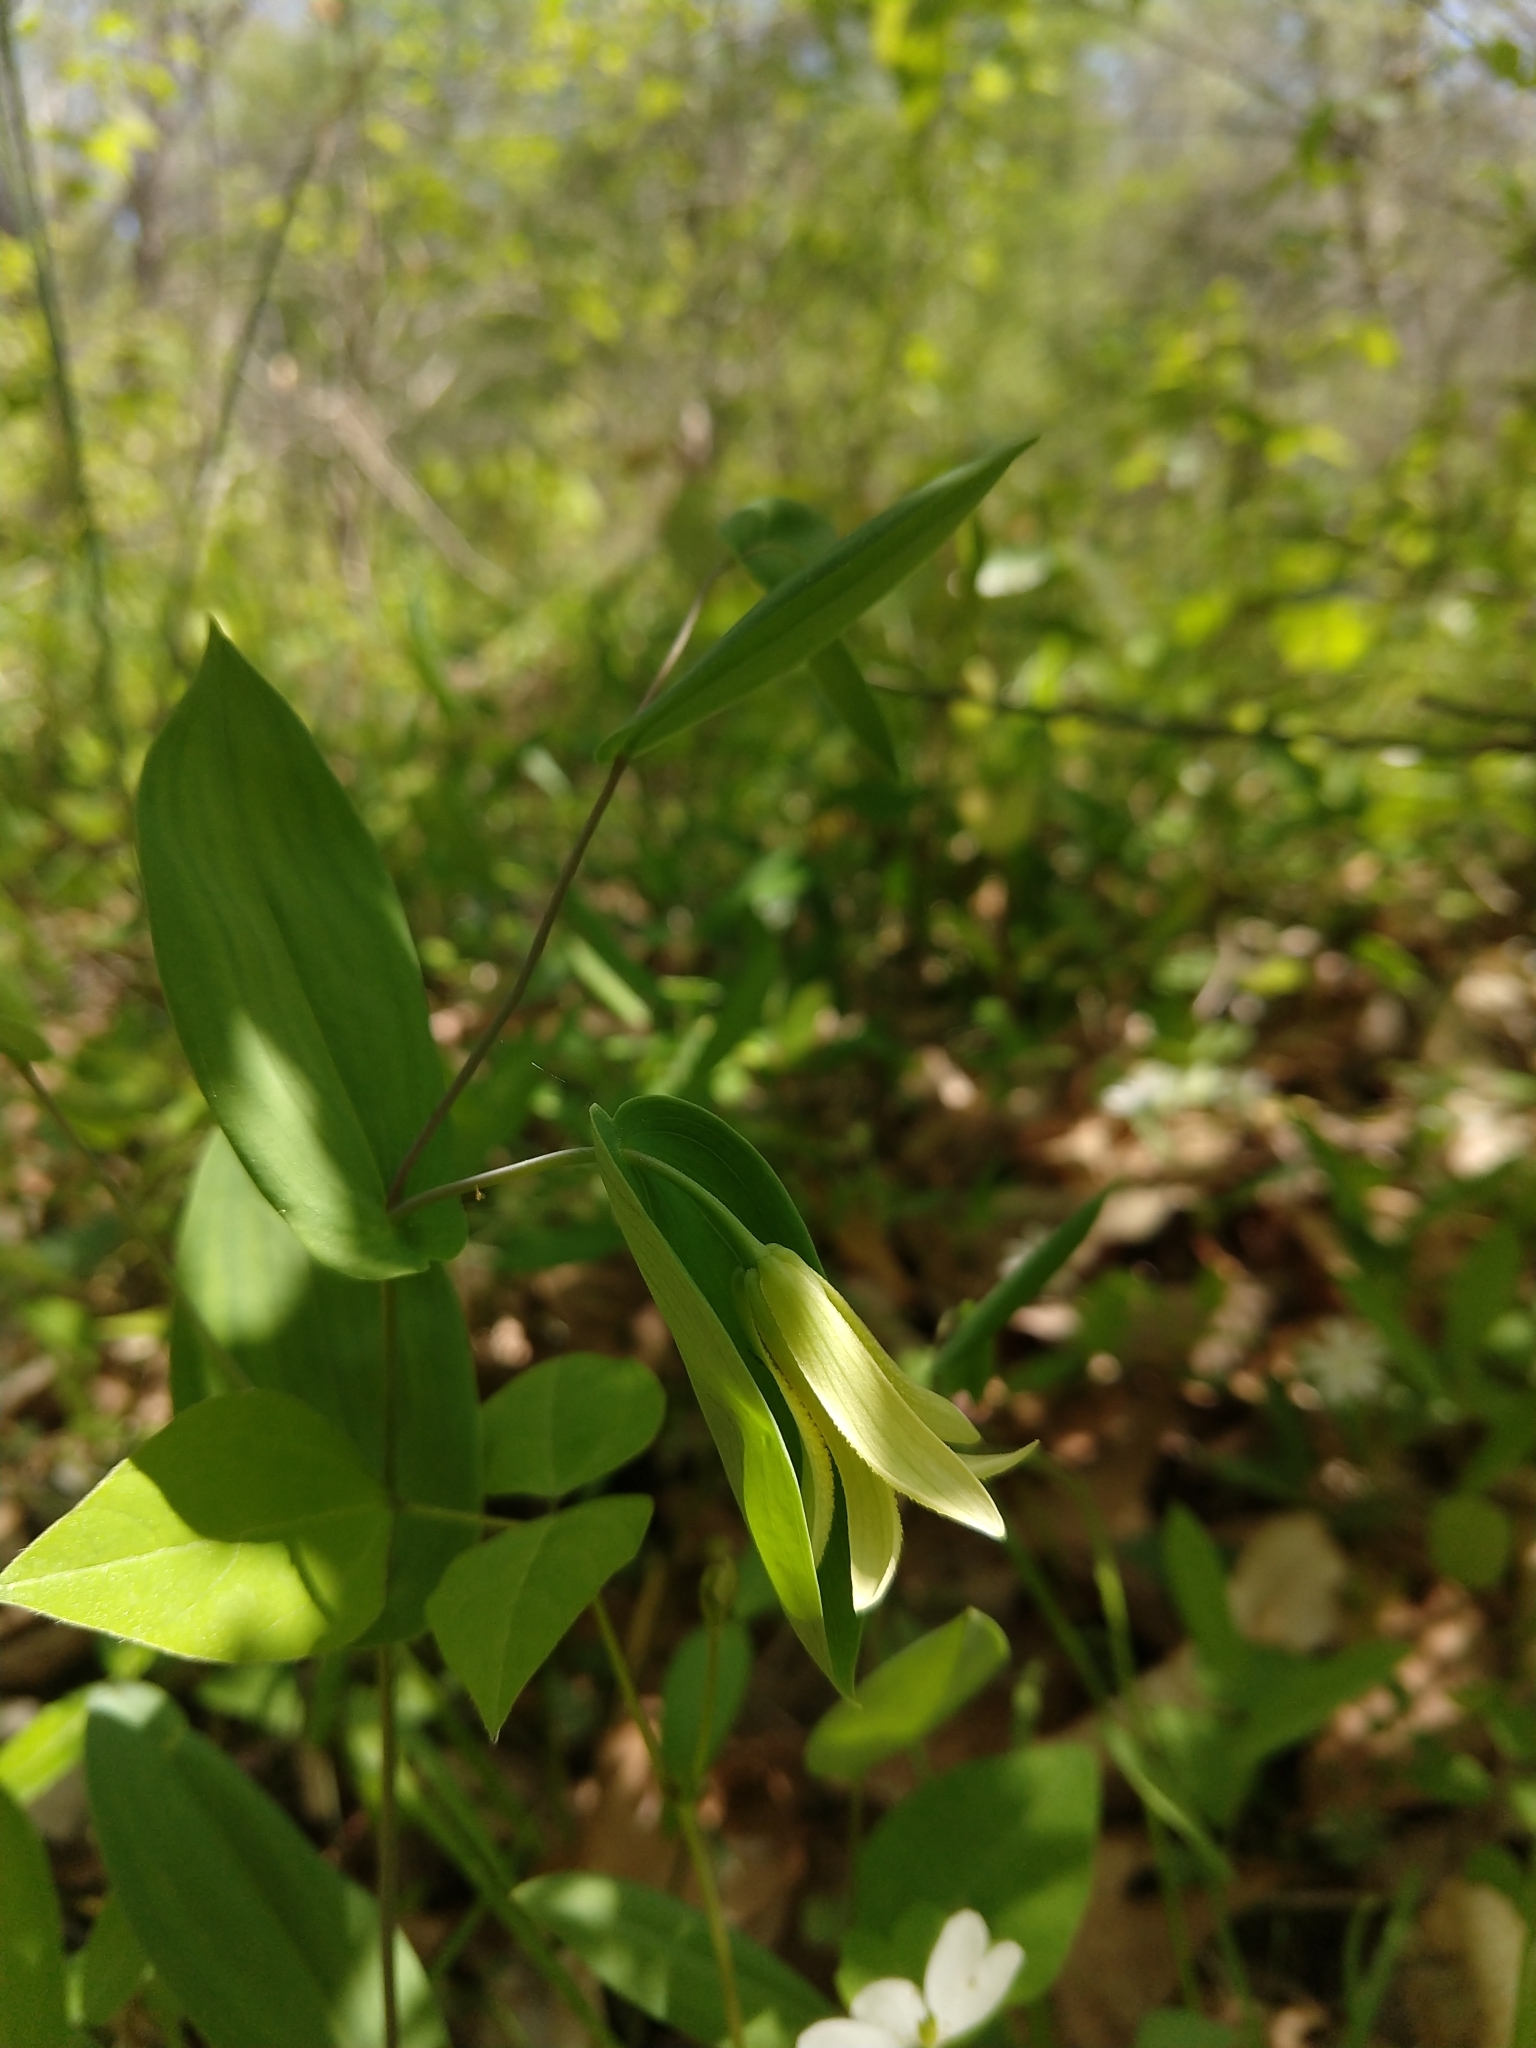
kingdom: Plantae
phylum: Tracheophyta
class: Liliopsida
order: Liliales
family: Colchicaceae
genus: Uvularia
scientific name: Uvularia perfoliata
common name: Perfoliate bellwort
